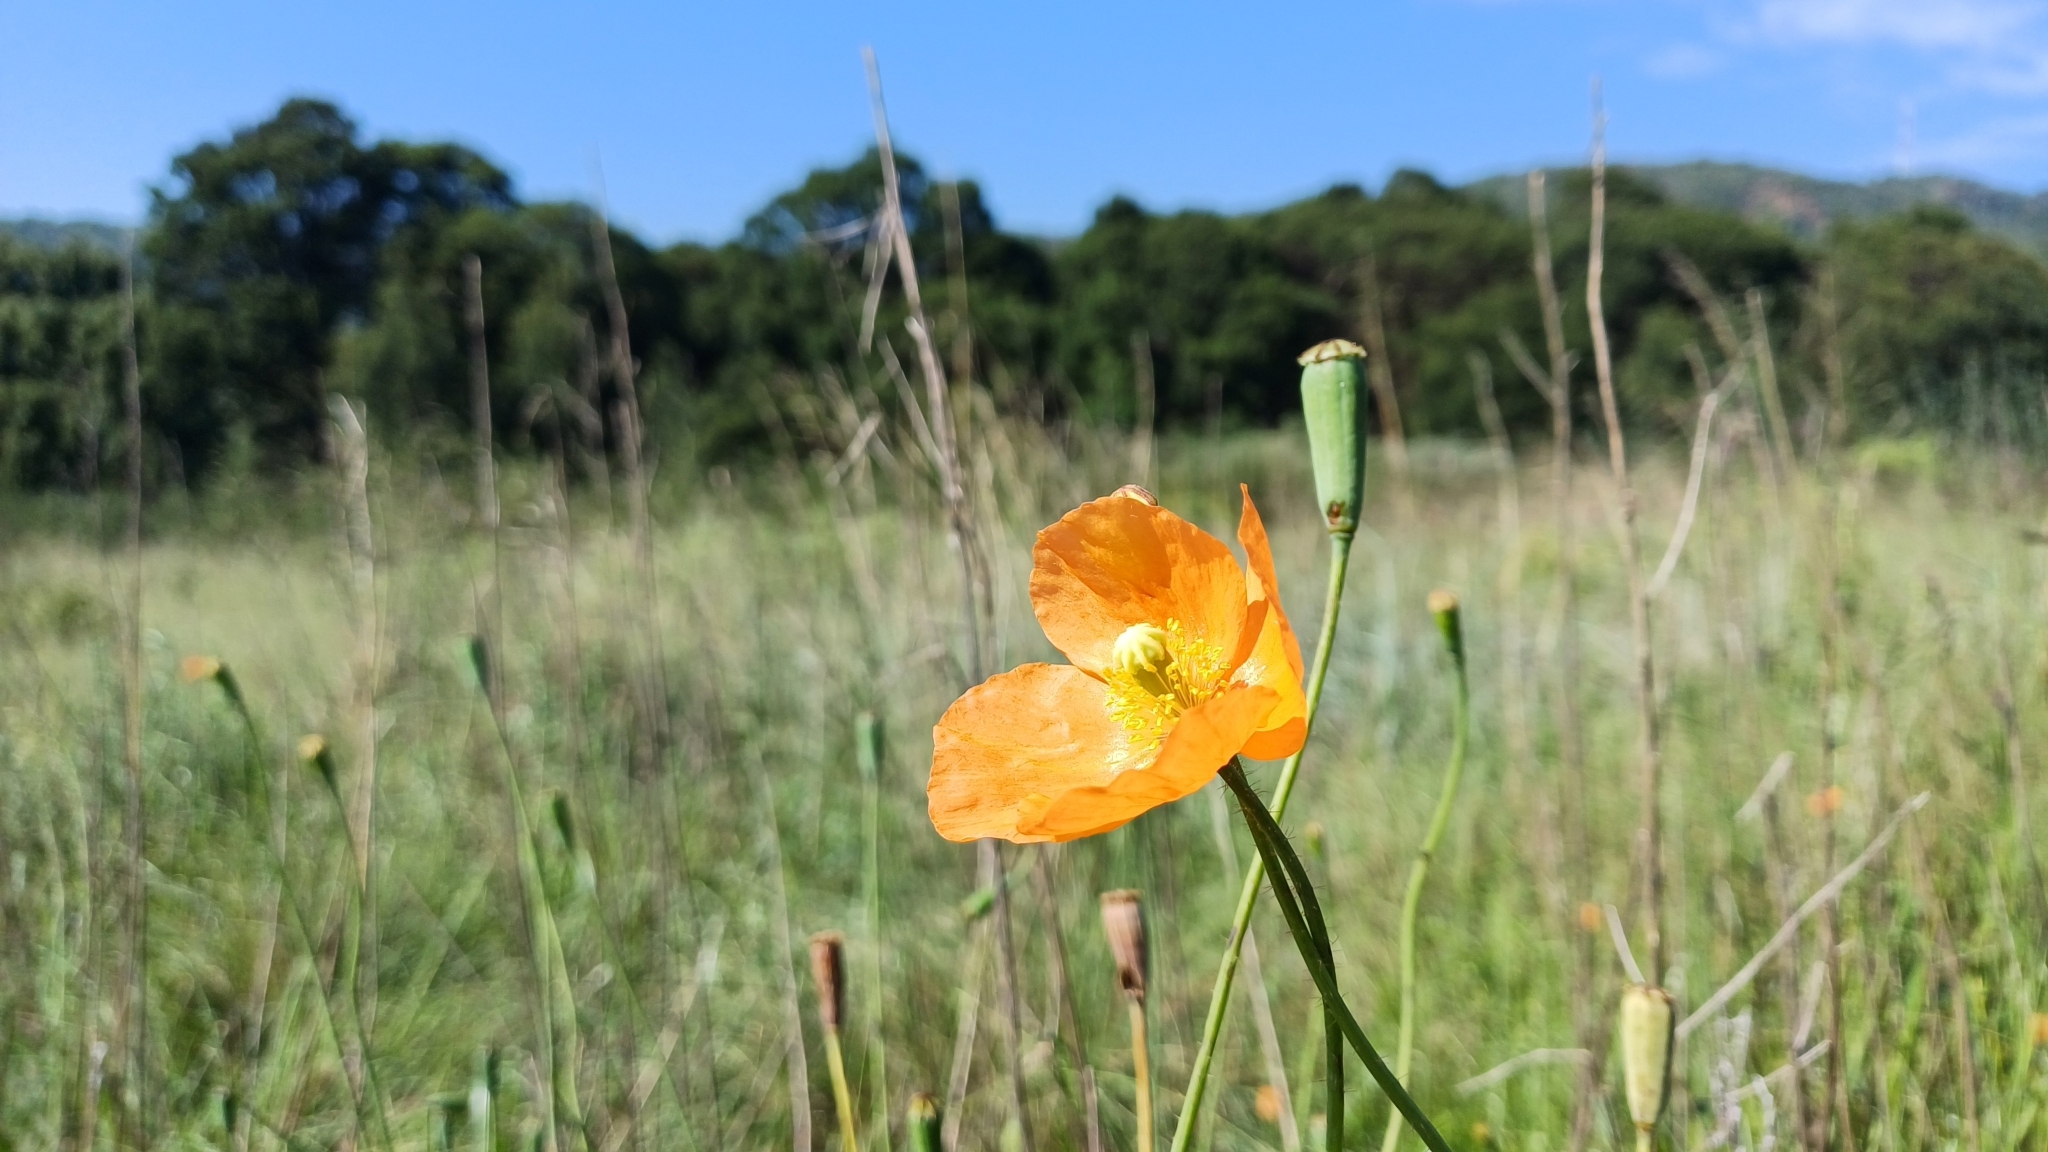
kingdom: Plantae
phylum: Tracheophyta
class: Magnoliopsida
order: Ranunculales
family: Papaveraceae
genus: Papaver
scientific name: Papaver aculeatum
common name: Bristle poppy
